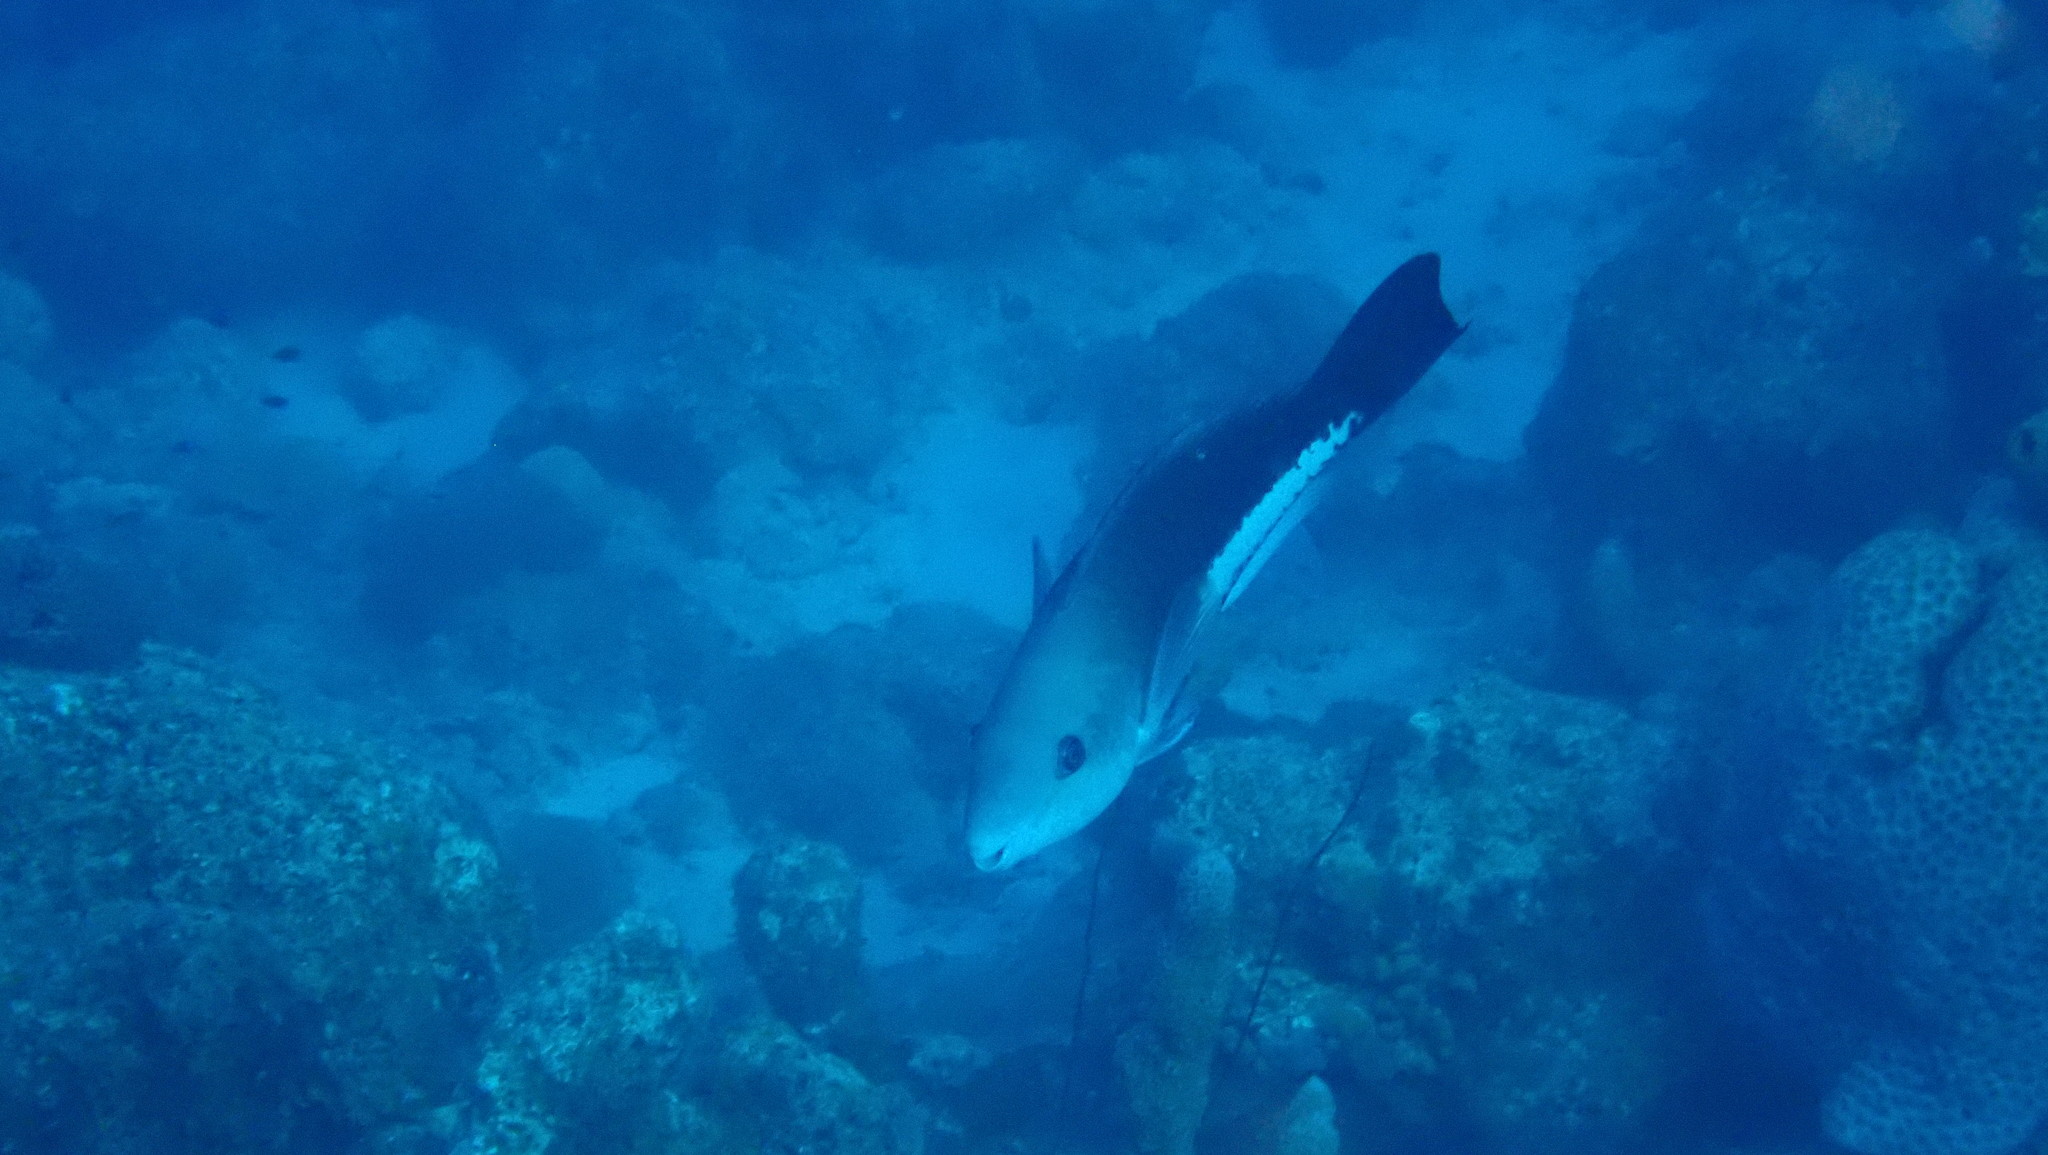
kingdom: Animalia
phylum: Chordata
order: Perciformes
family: Scaridae
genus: Scarus
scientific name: Scarus vetula
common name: Queen parrotfish
